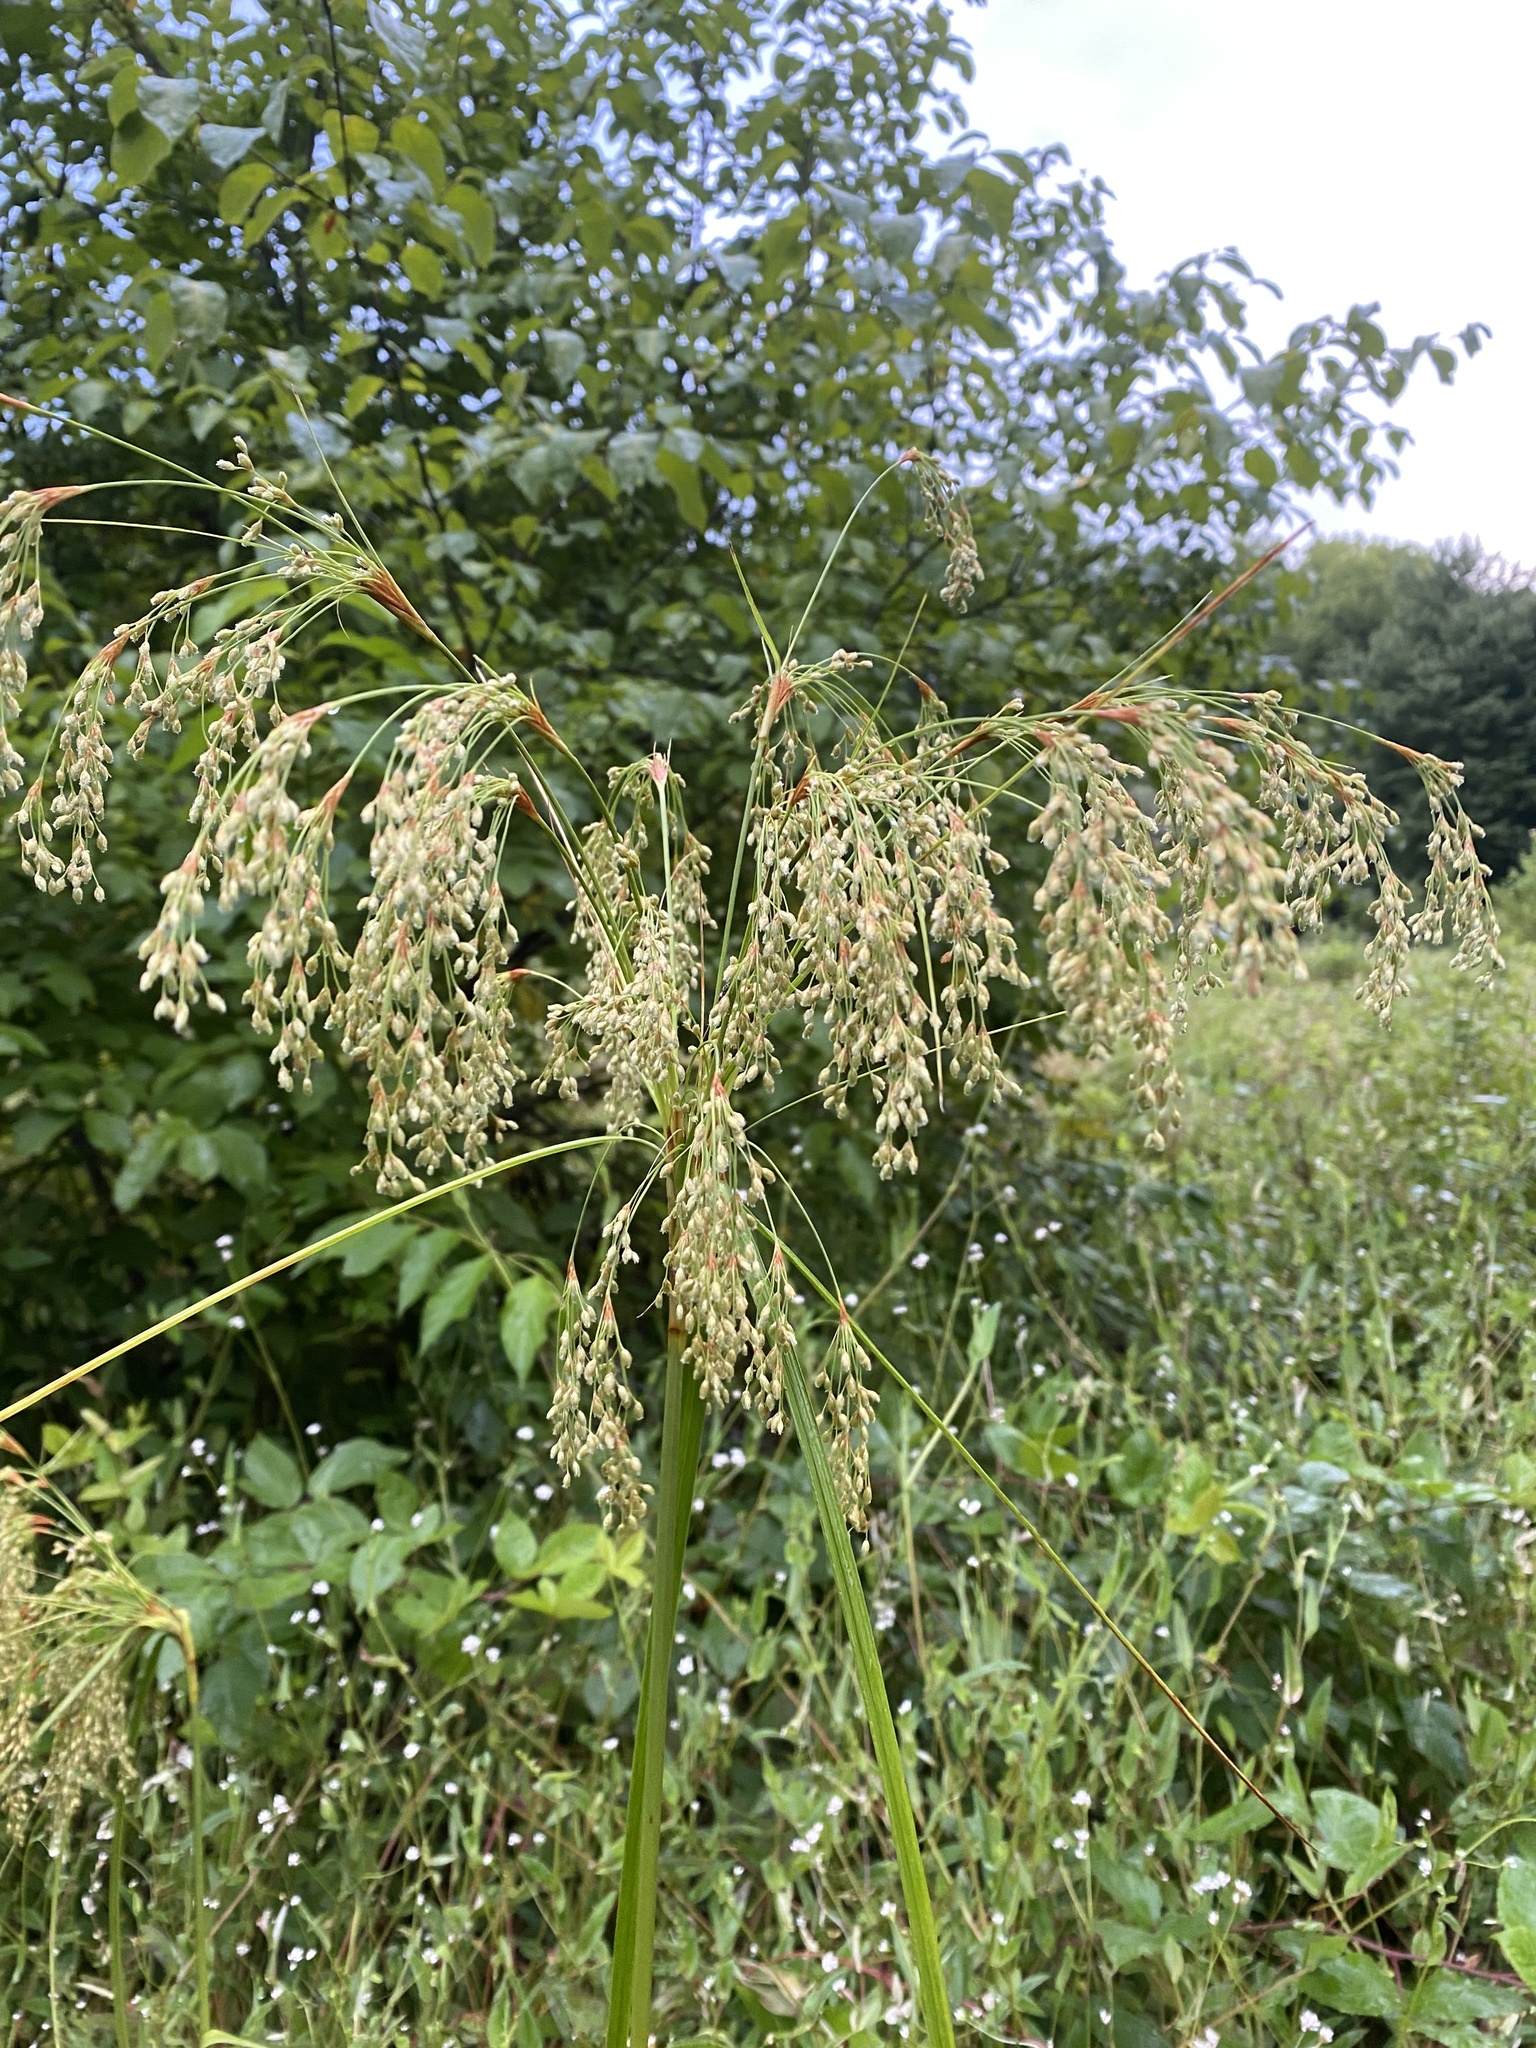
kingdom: Plantae
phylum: Tracheophyta
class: Liliopsida
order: Poales
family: Cyperaceae
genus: Scirpus
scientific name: Scirpus cyperinus
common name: Black-sheathed bulrush
